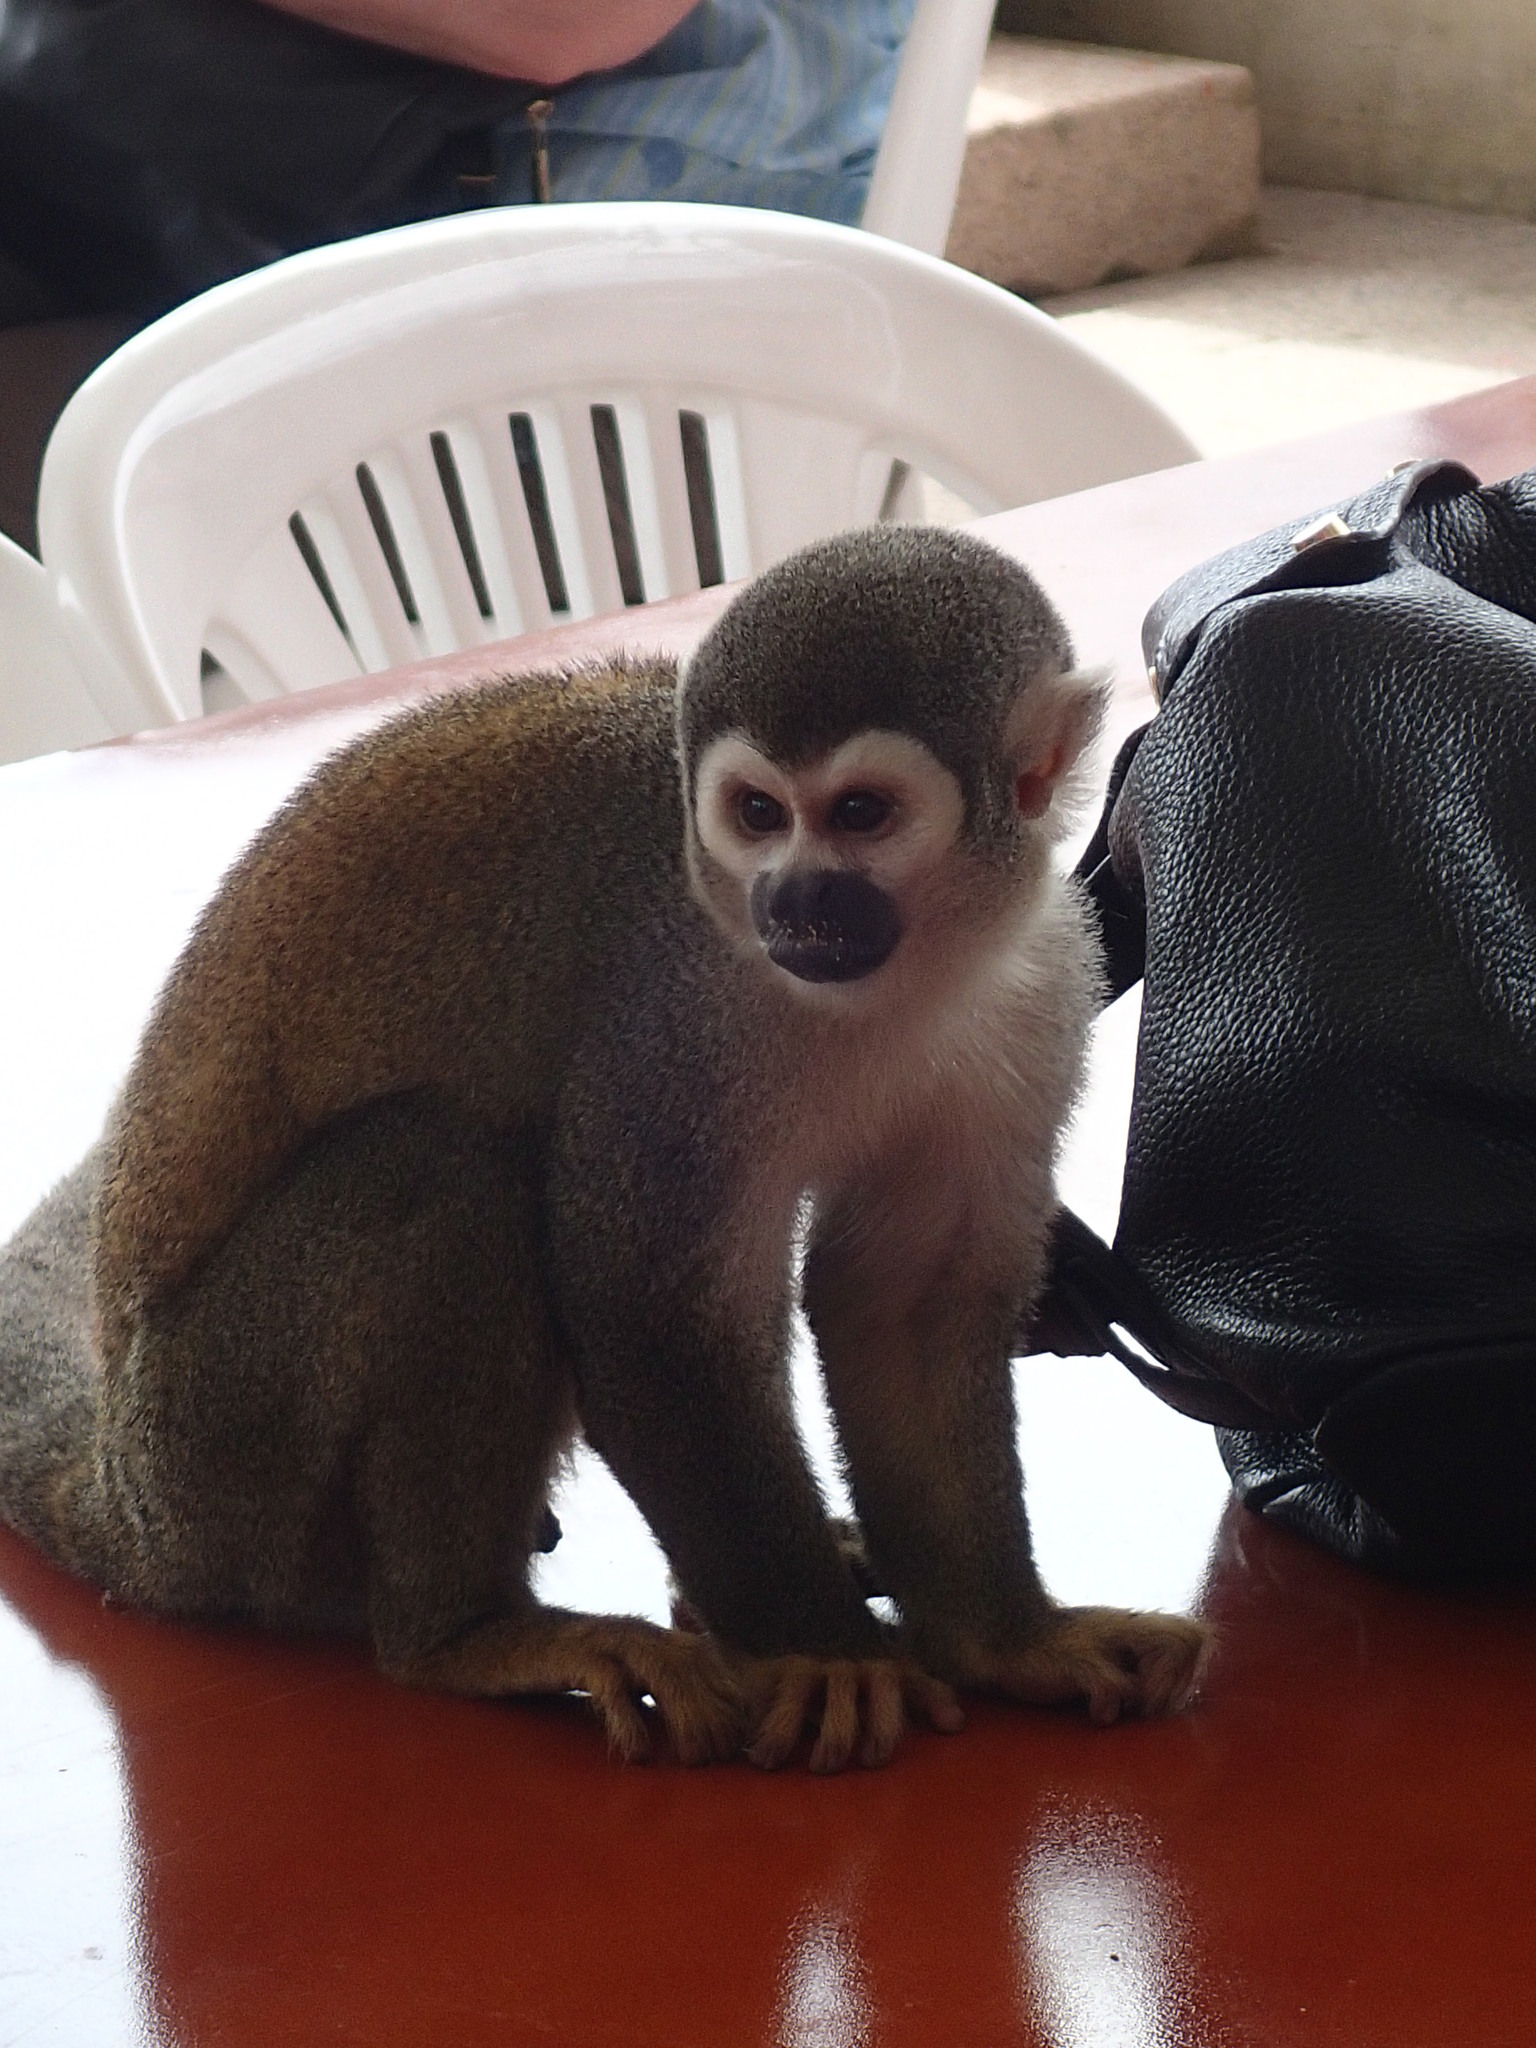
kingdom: Animalia
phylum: Chordata
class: Mammalia
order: Primates
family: Cebidae
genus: Saimiri
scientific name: Saimiri cassiquiarensis
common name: Humboldt’s squirrel monkey
